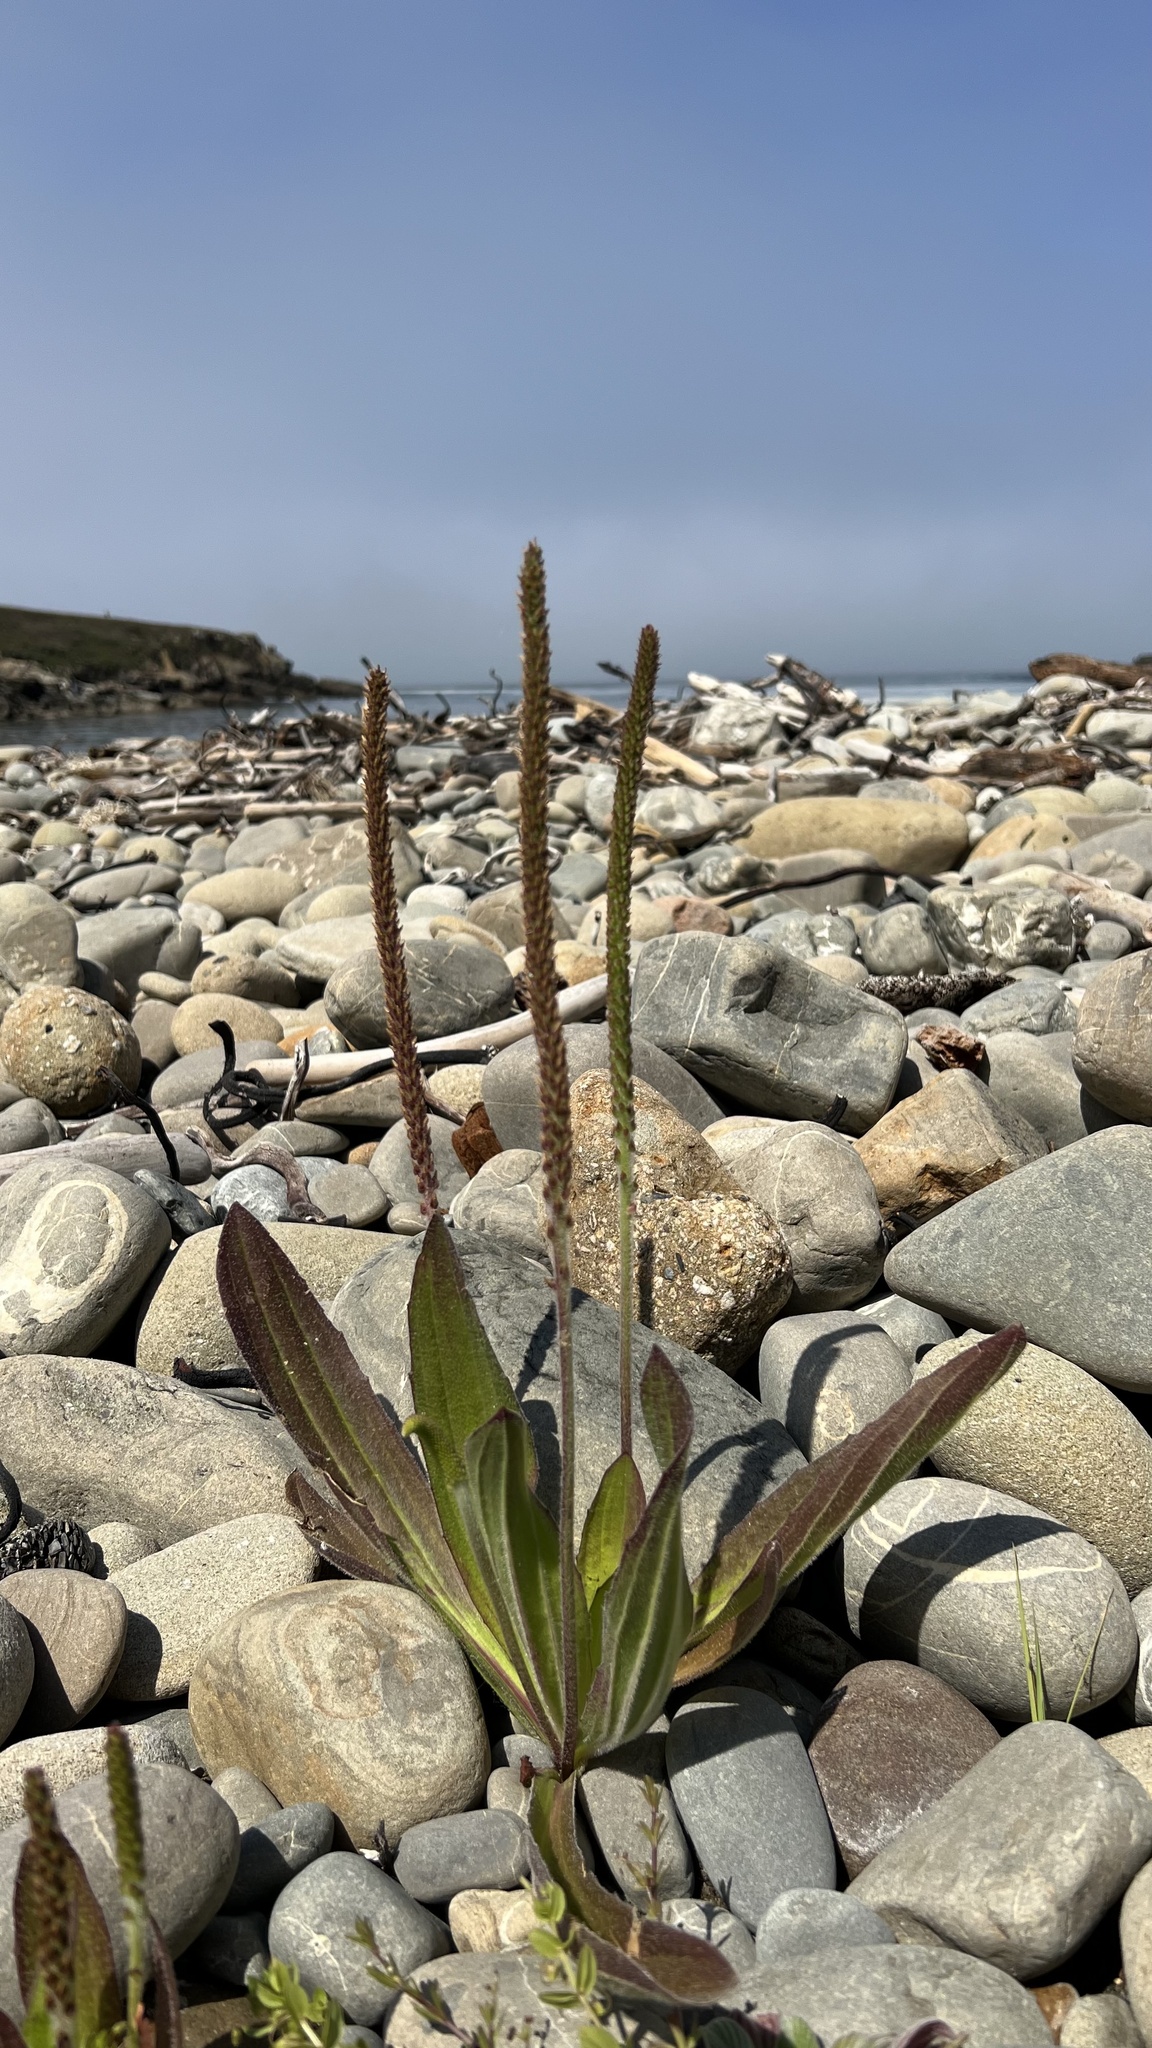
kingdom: Plantae
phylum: Tracheophyta
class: Magnoliopsida
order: Lamiales
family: Plantaginaceae
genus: Plantago
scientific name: Plantago subnuda
